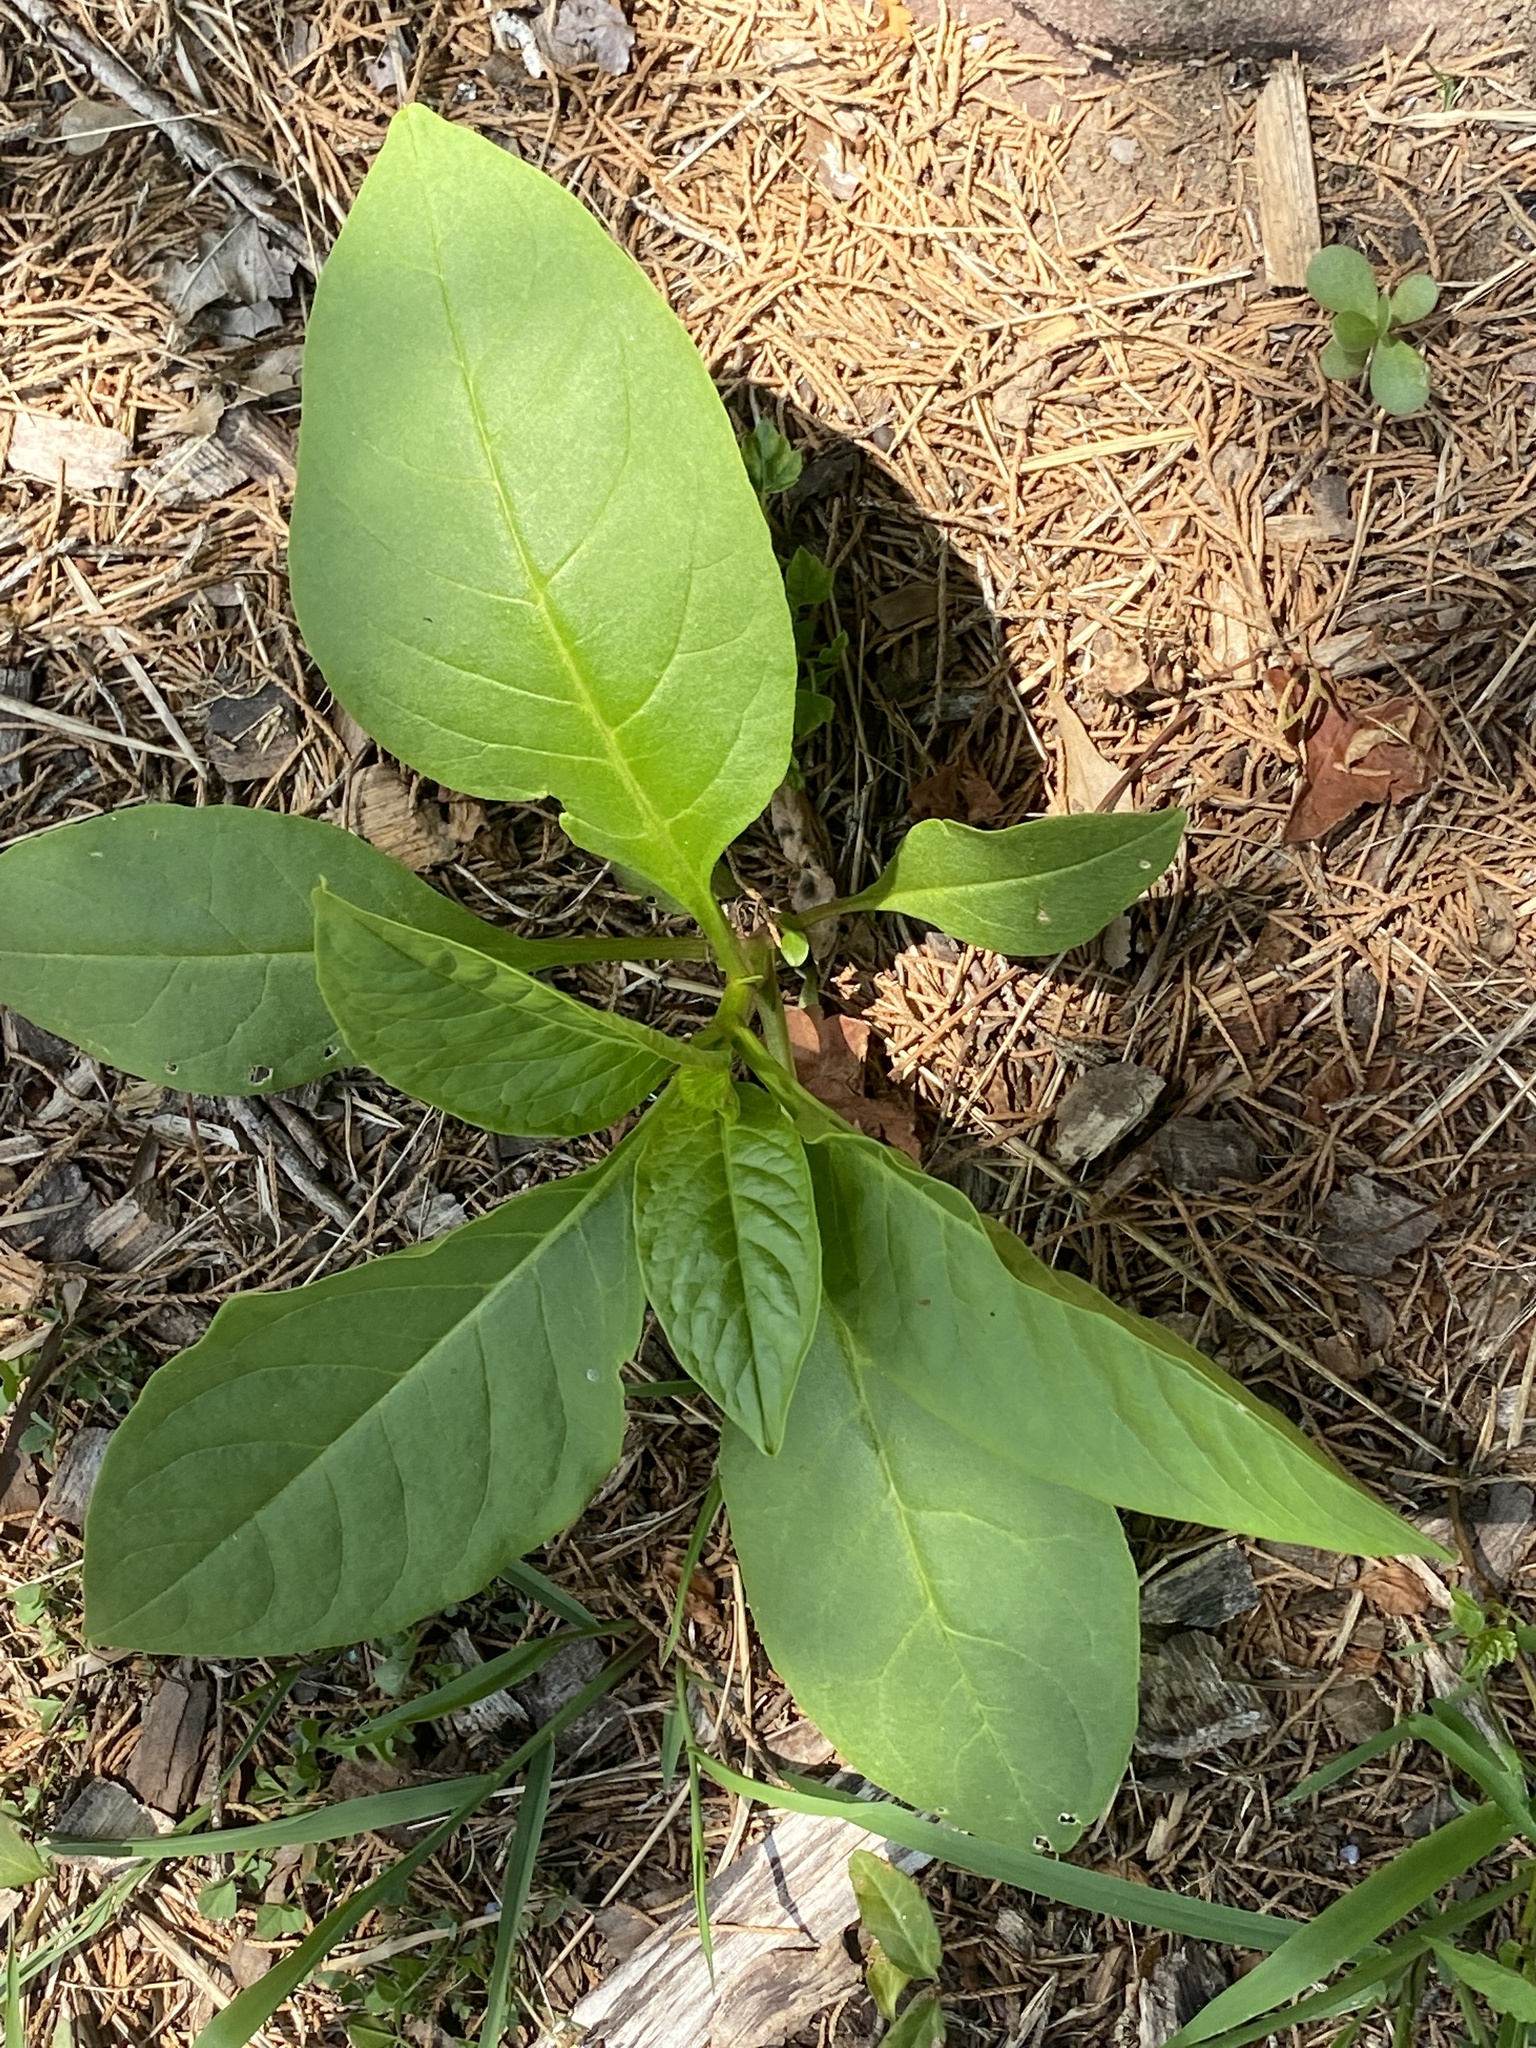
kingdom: Plantae
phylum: Tracheophyta
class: Magnoliopsida
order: Caryophyllales
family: Phytolaccaceae
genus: Phytolacca
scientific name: Phytolacca americana
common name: American pokeweed
